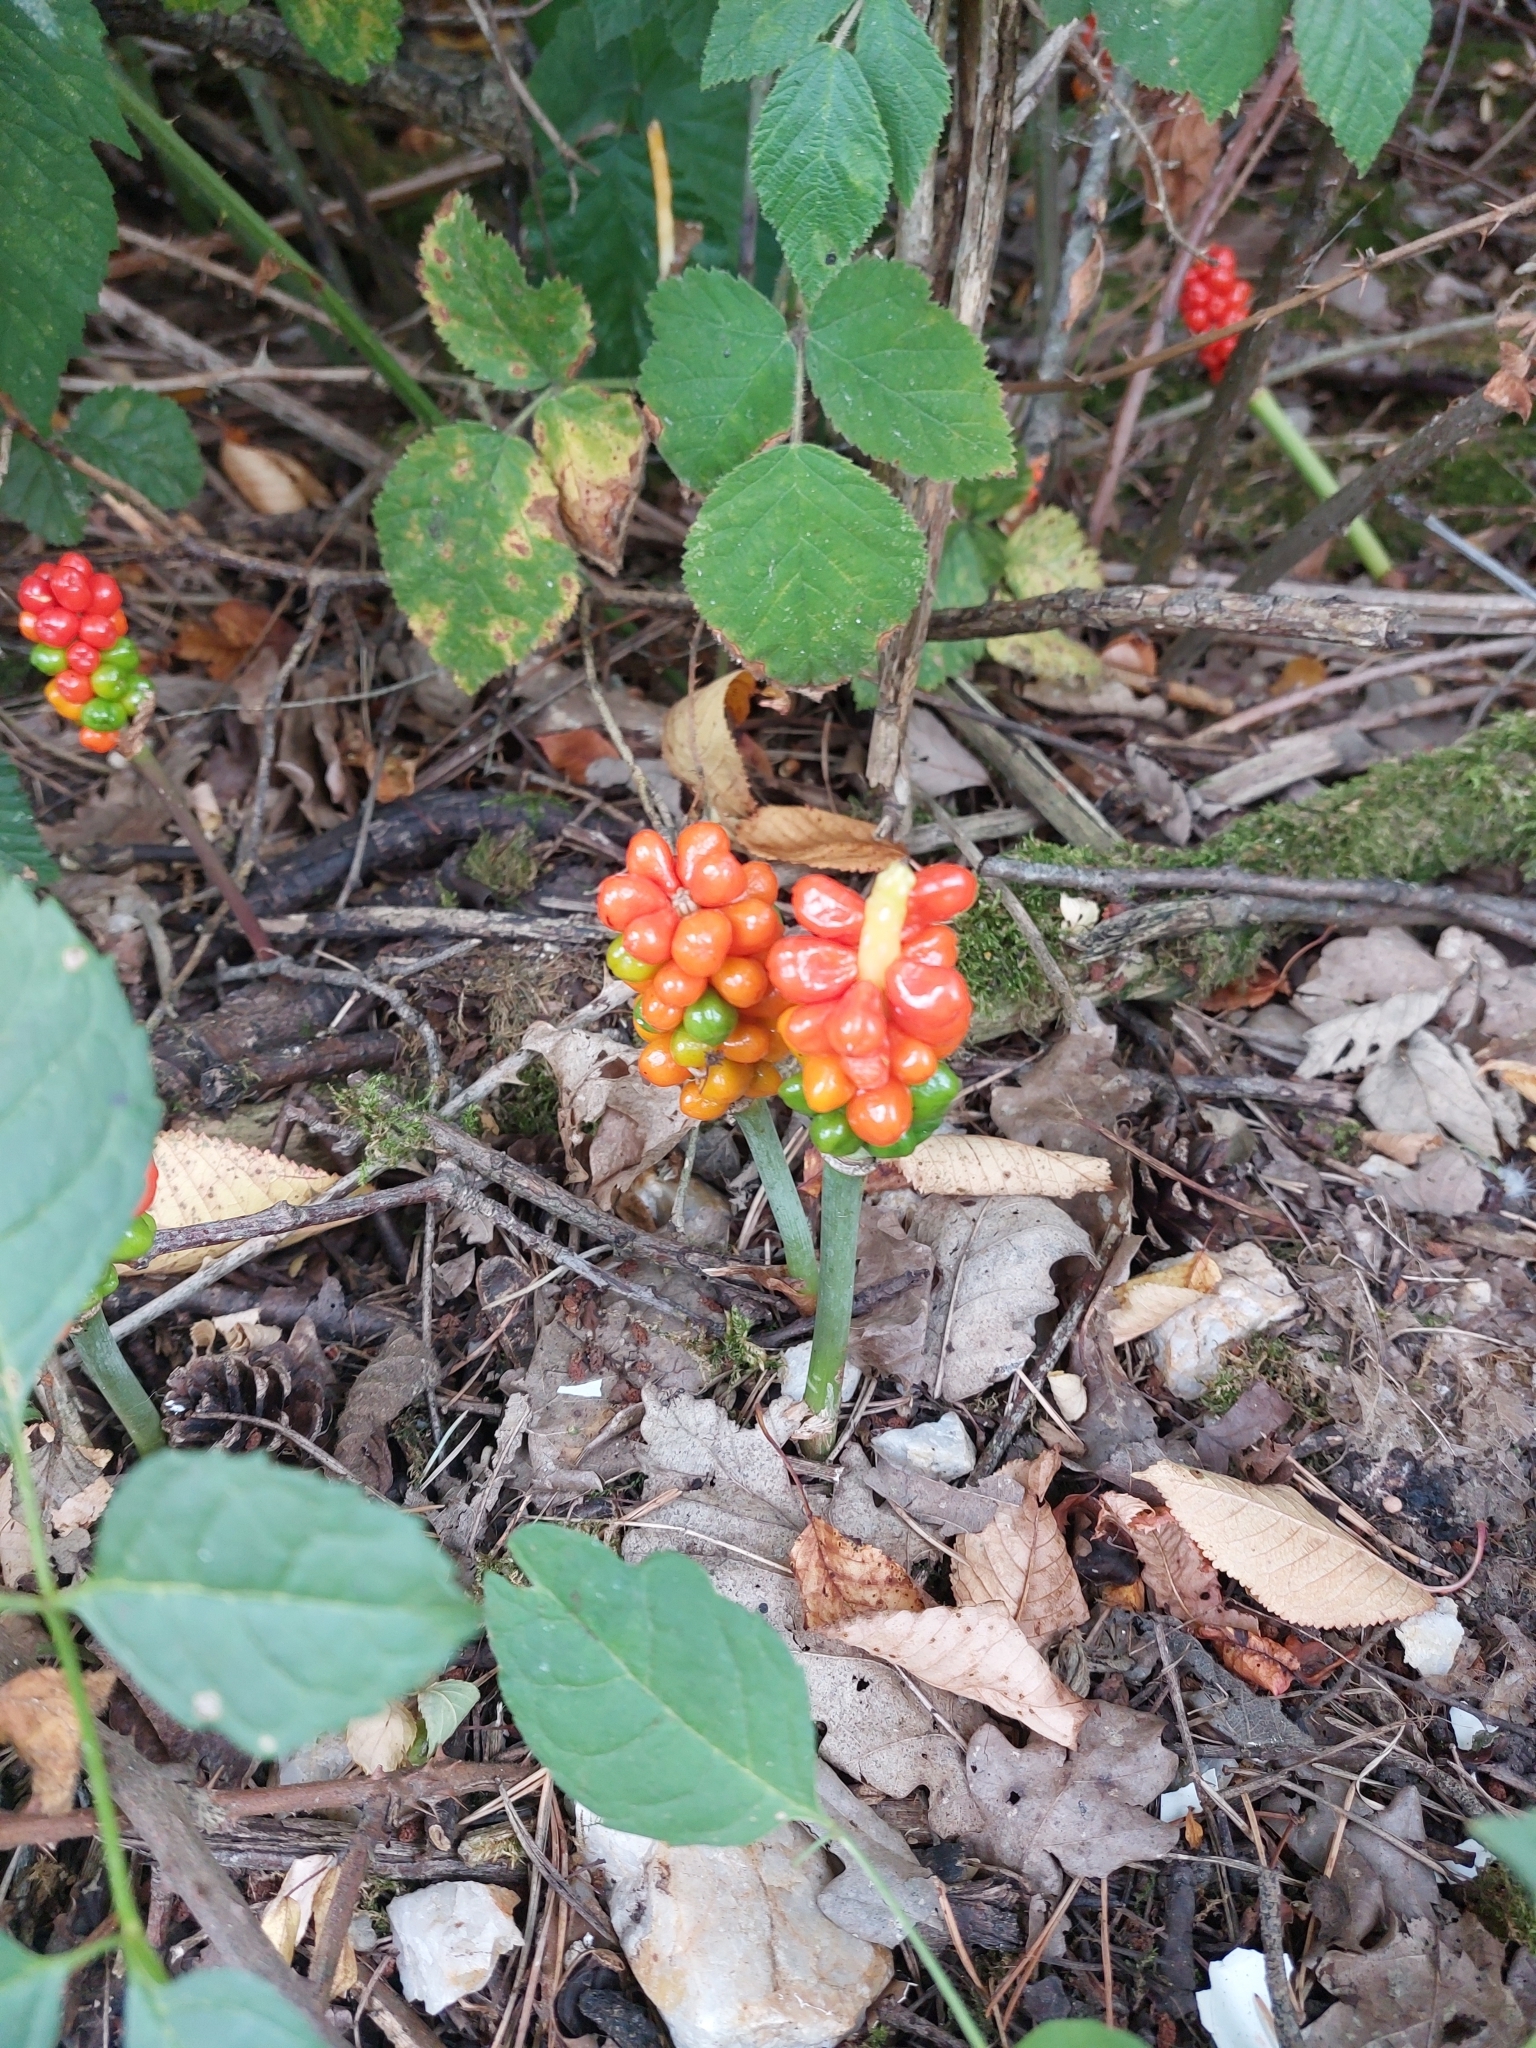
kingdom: Plantae
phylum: Tracheophyta
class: Liliopsida
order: Alismatales
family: Araceae
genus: Arum
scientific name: Arum maculatum
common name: Lords-and-ladies
